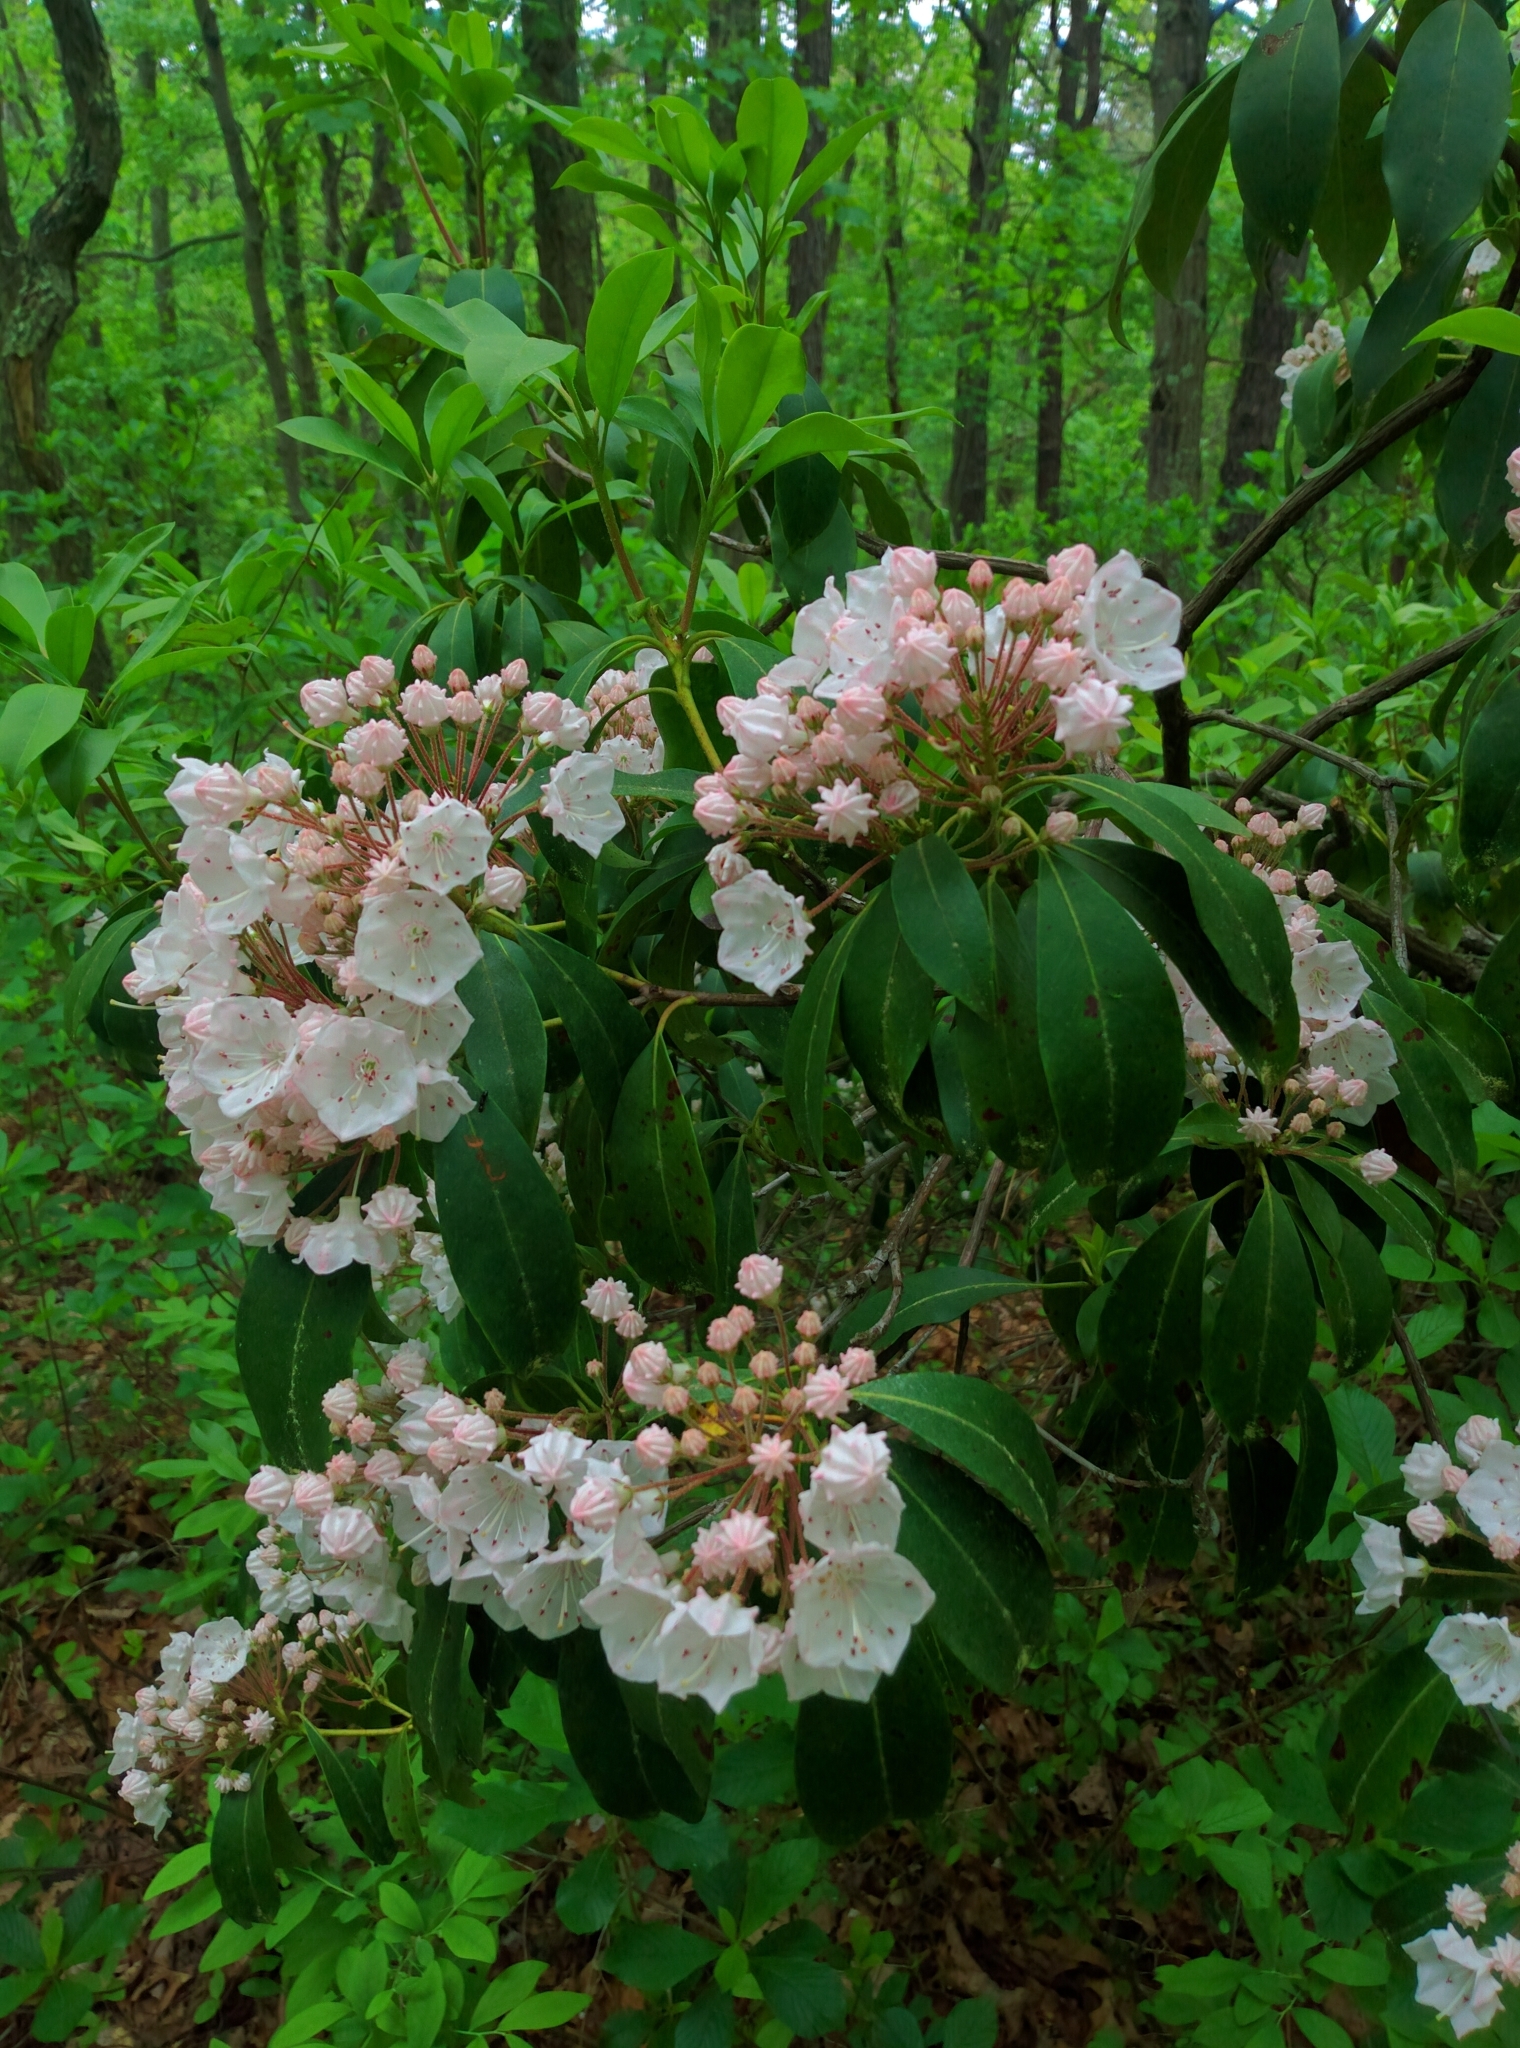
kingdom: Plantae
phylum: Tracheophyta
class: Magnoliopsida
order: Ericales
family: Ericaceae
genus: Kalmia
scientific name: Kalmia latifolia
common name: Mountain-laurel
